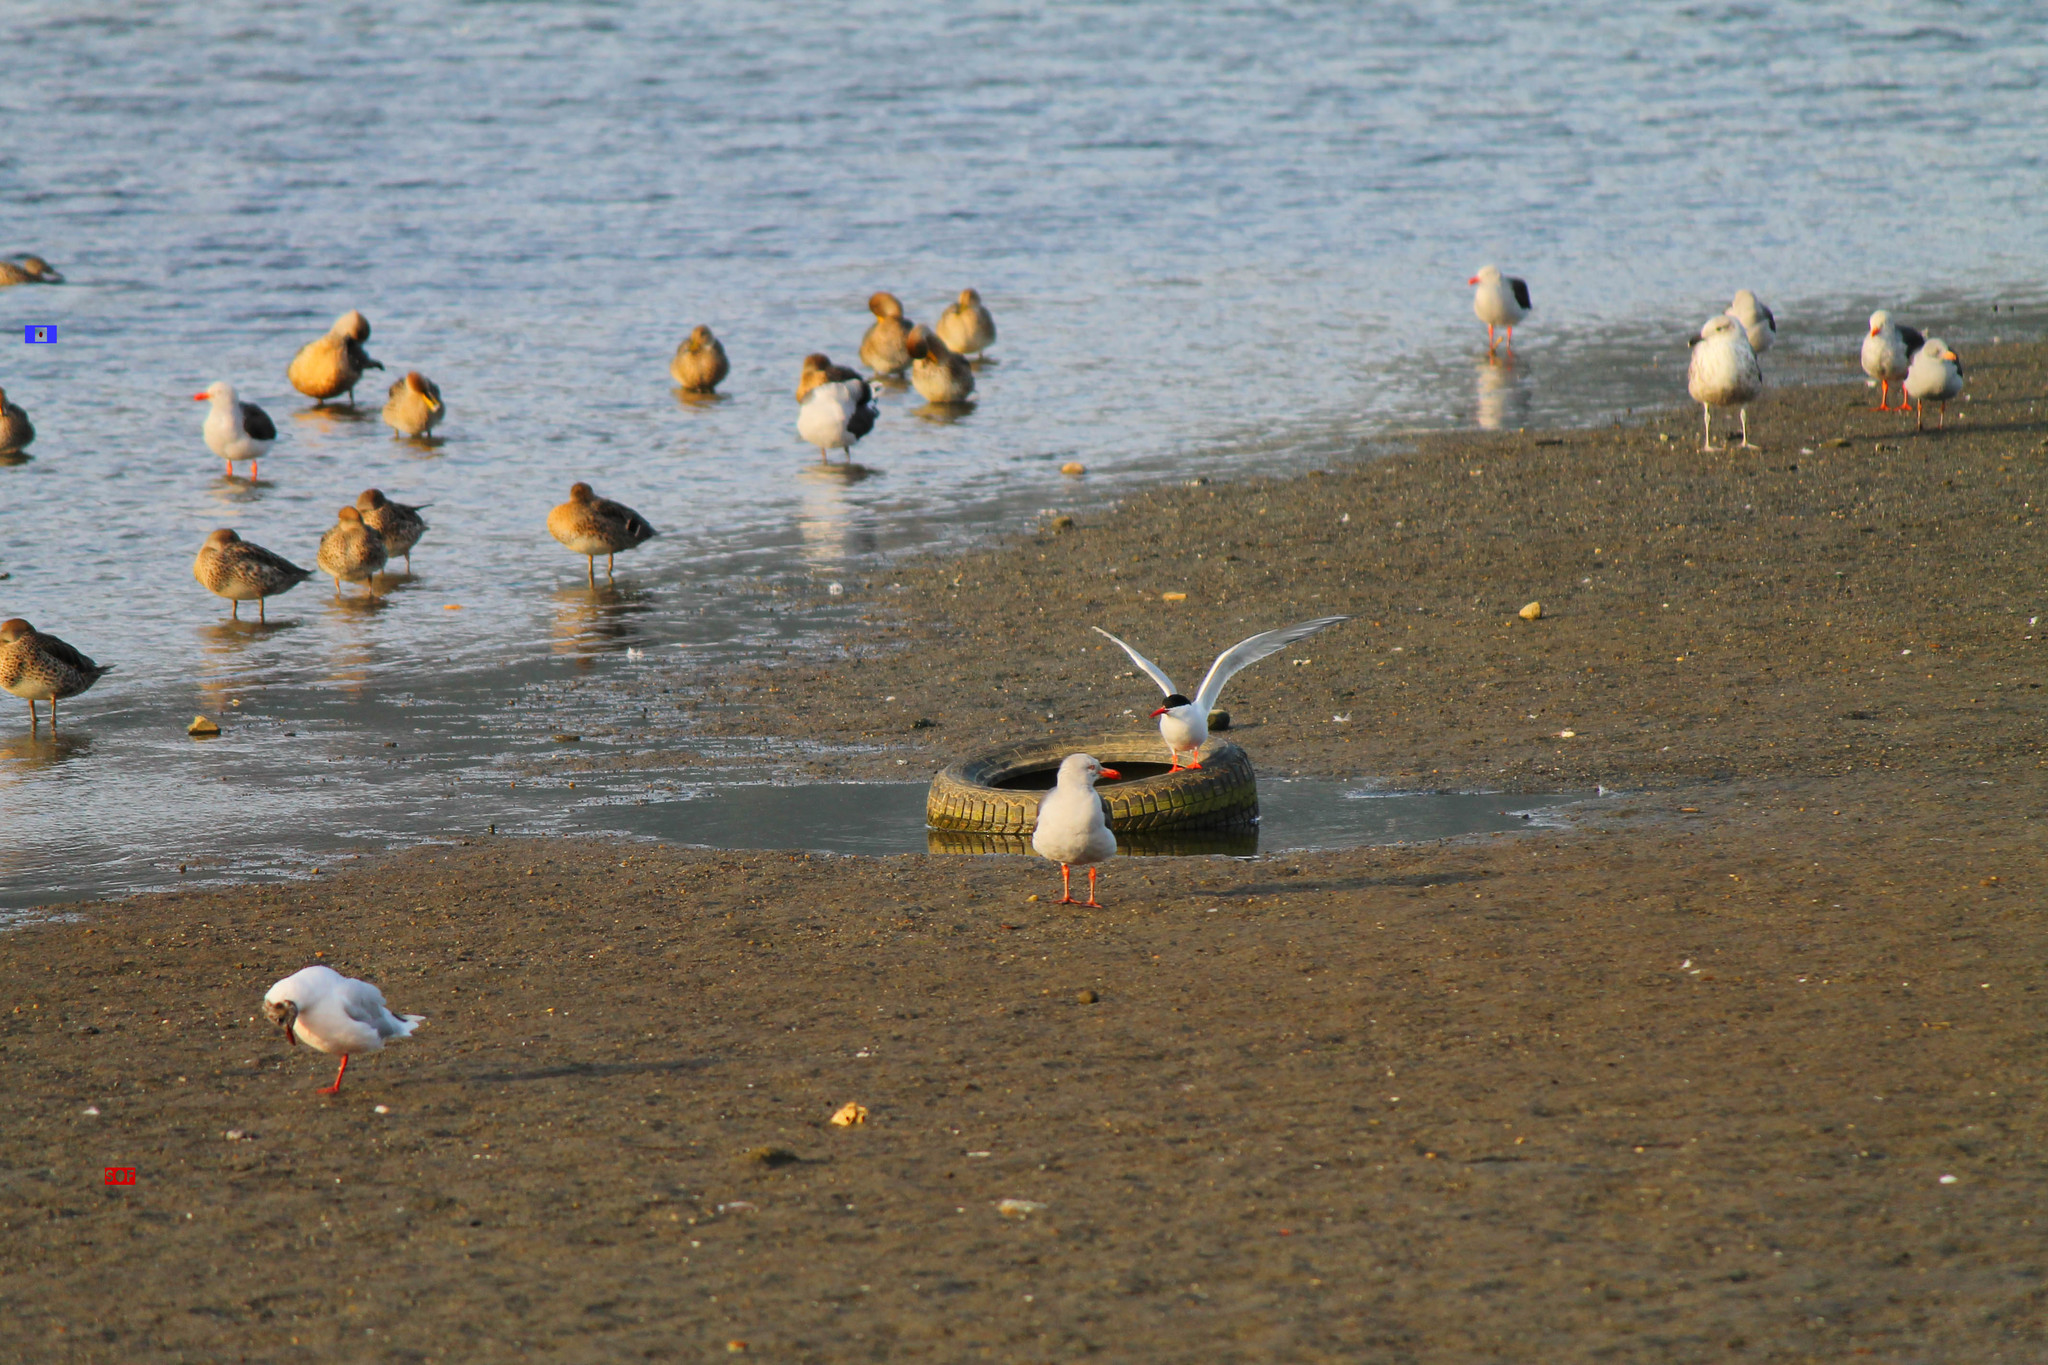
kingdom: Animalia
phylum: Chordata
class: Aves
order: Charadriiformes
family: Laridae
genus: Sterna
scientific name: Sterna hirundinacea
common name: South american tern
